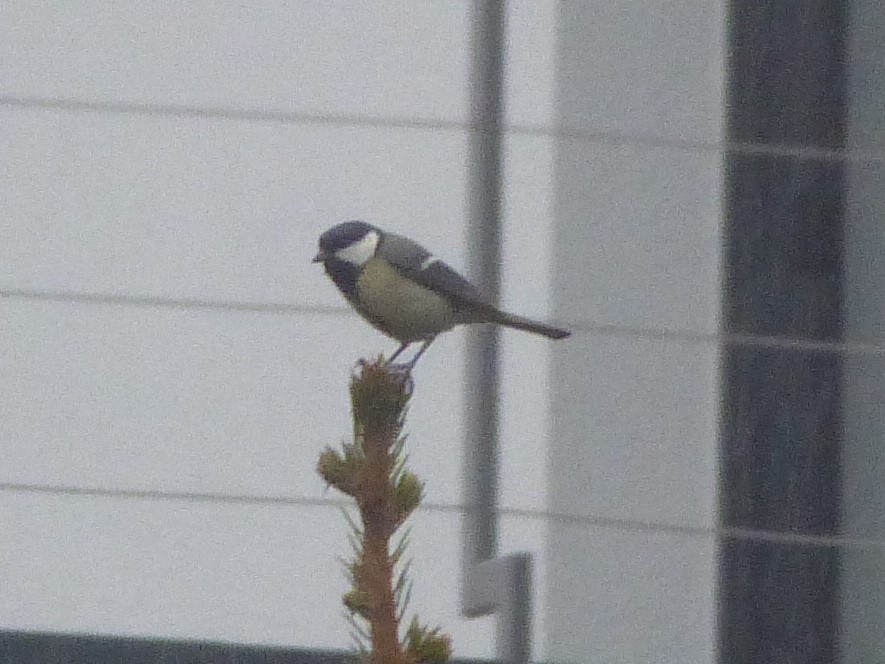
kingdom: Animalia
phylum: Chordata
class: Aves
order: Passeriformes
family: Paridae
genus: Parus
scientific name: Parus major
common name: Great tit
